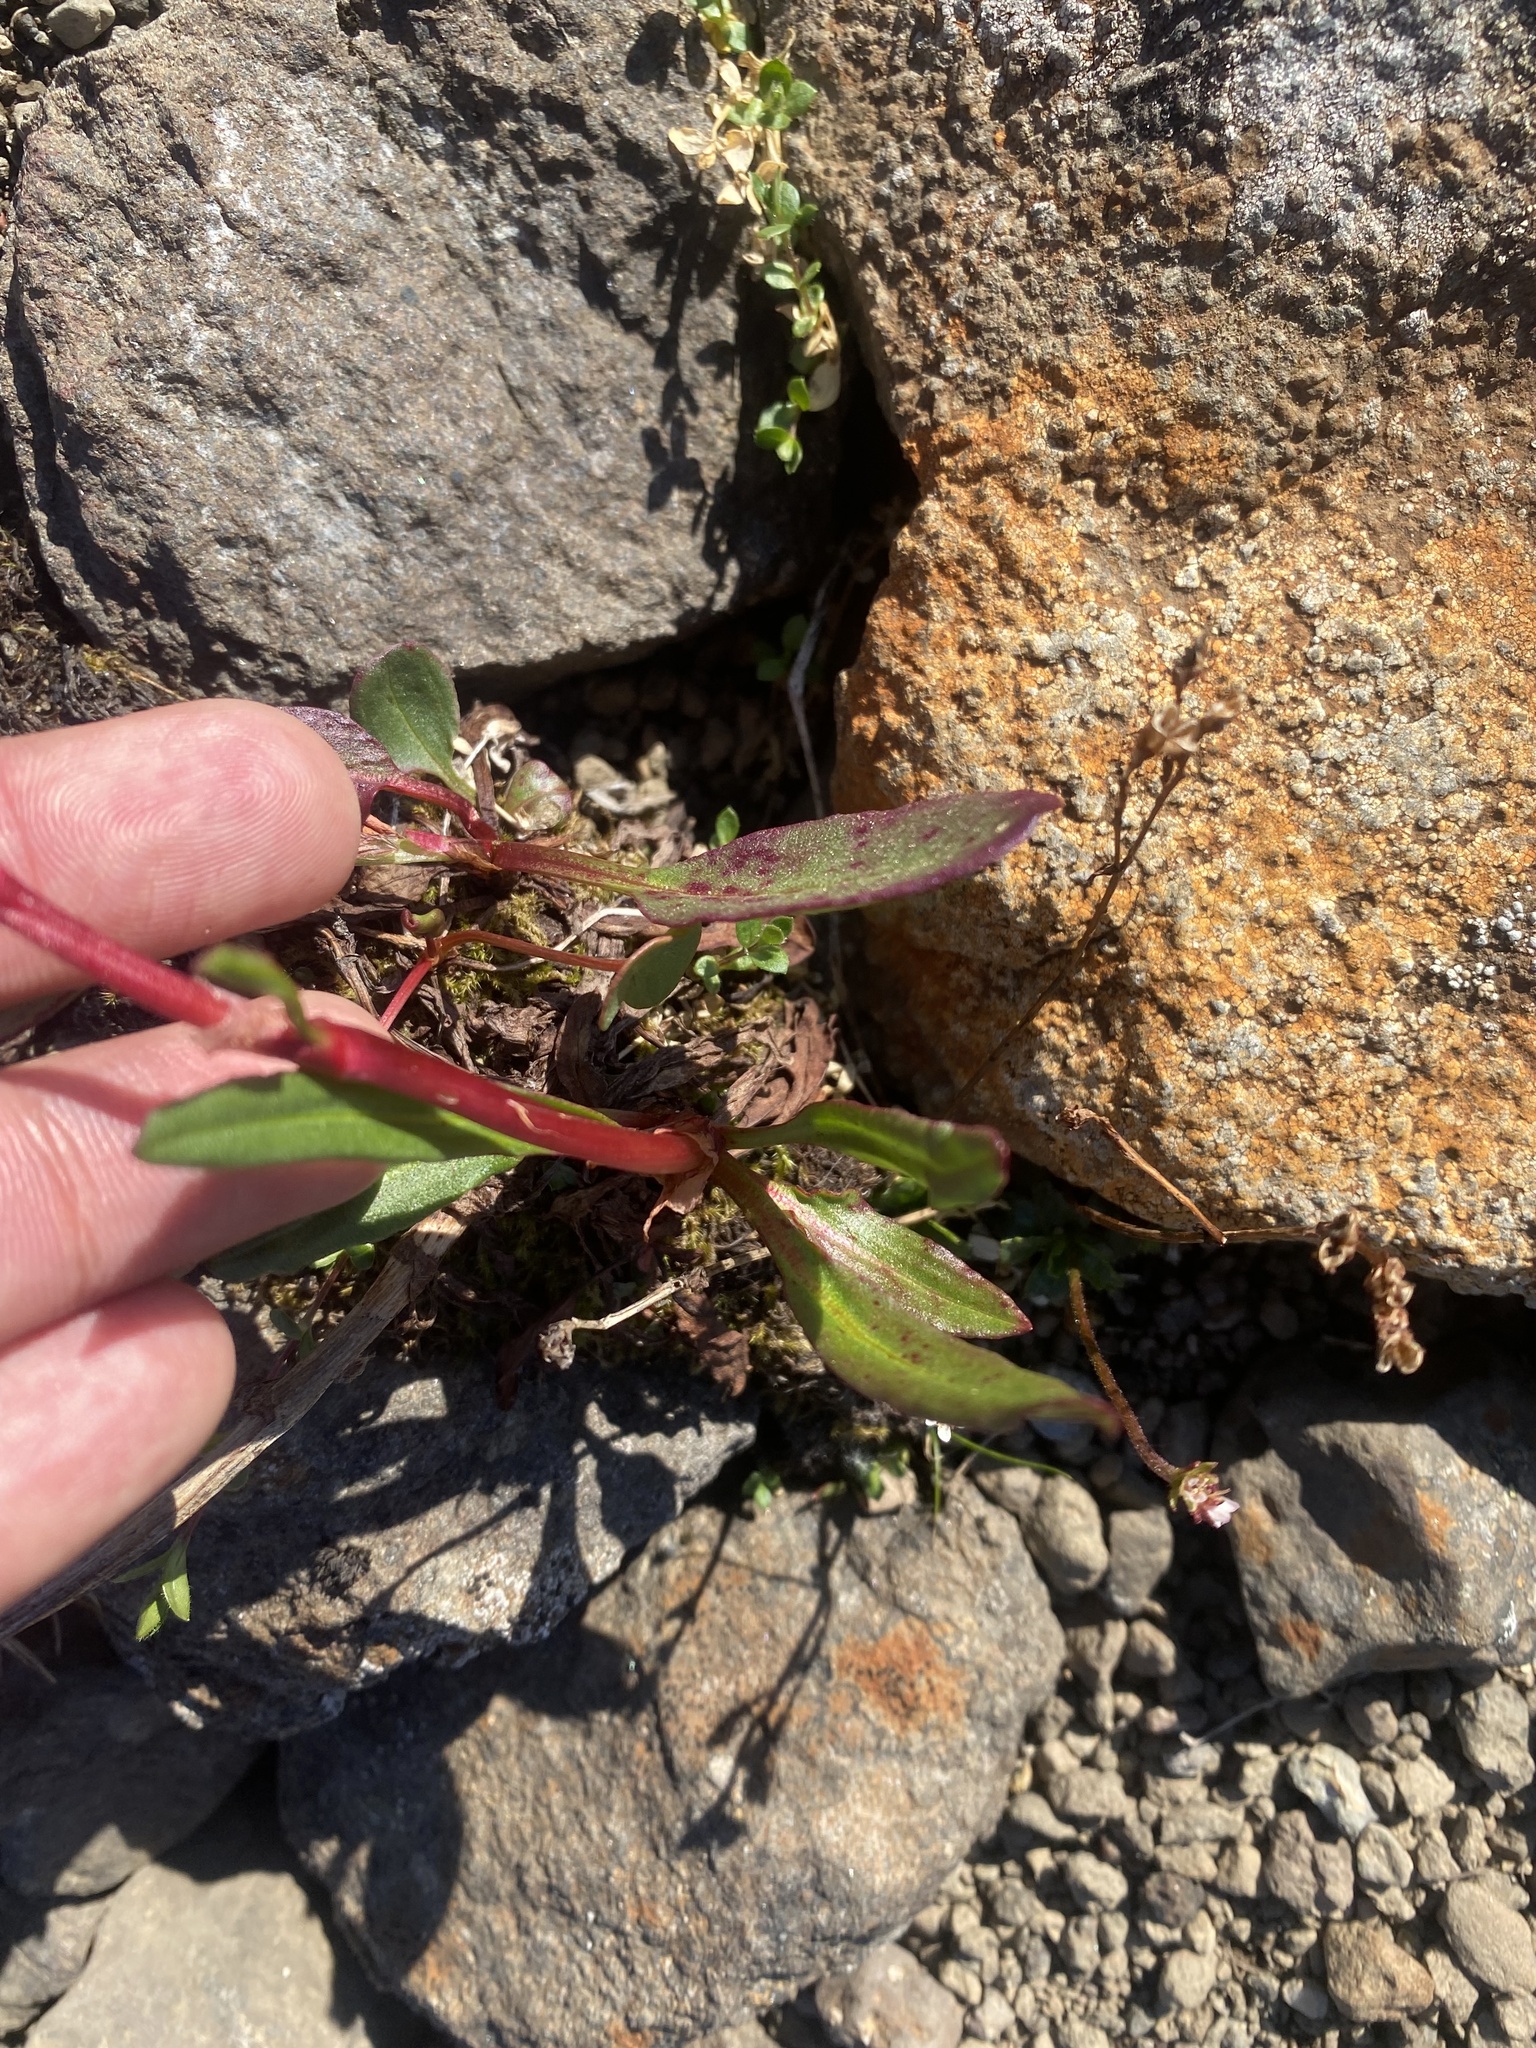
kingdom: Plantae
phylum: Tracheophyta
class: Magnoliopsida
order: Caryophyllales
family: Polygonaceae
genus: Rumex
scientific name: Rumex arcticus
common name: Arctic dock
